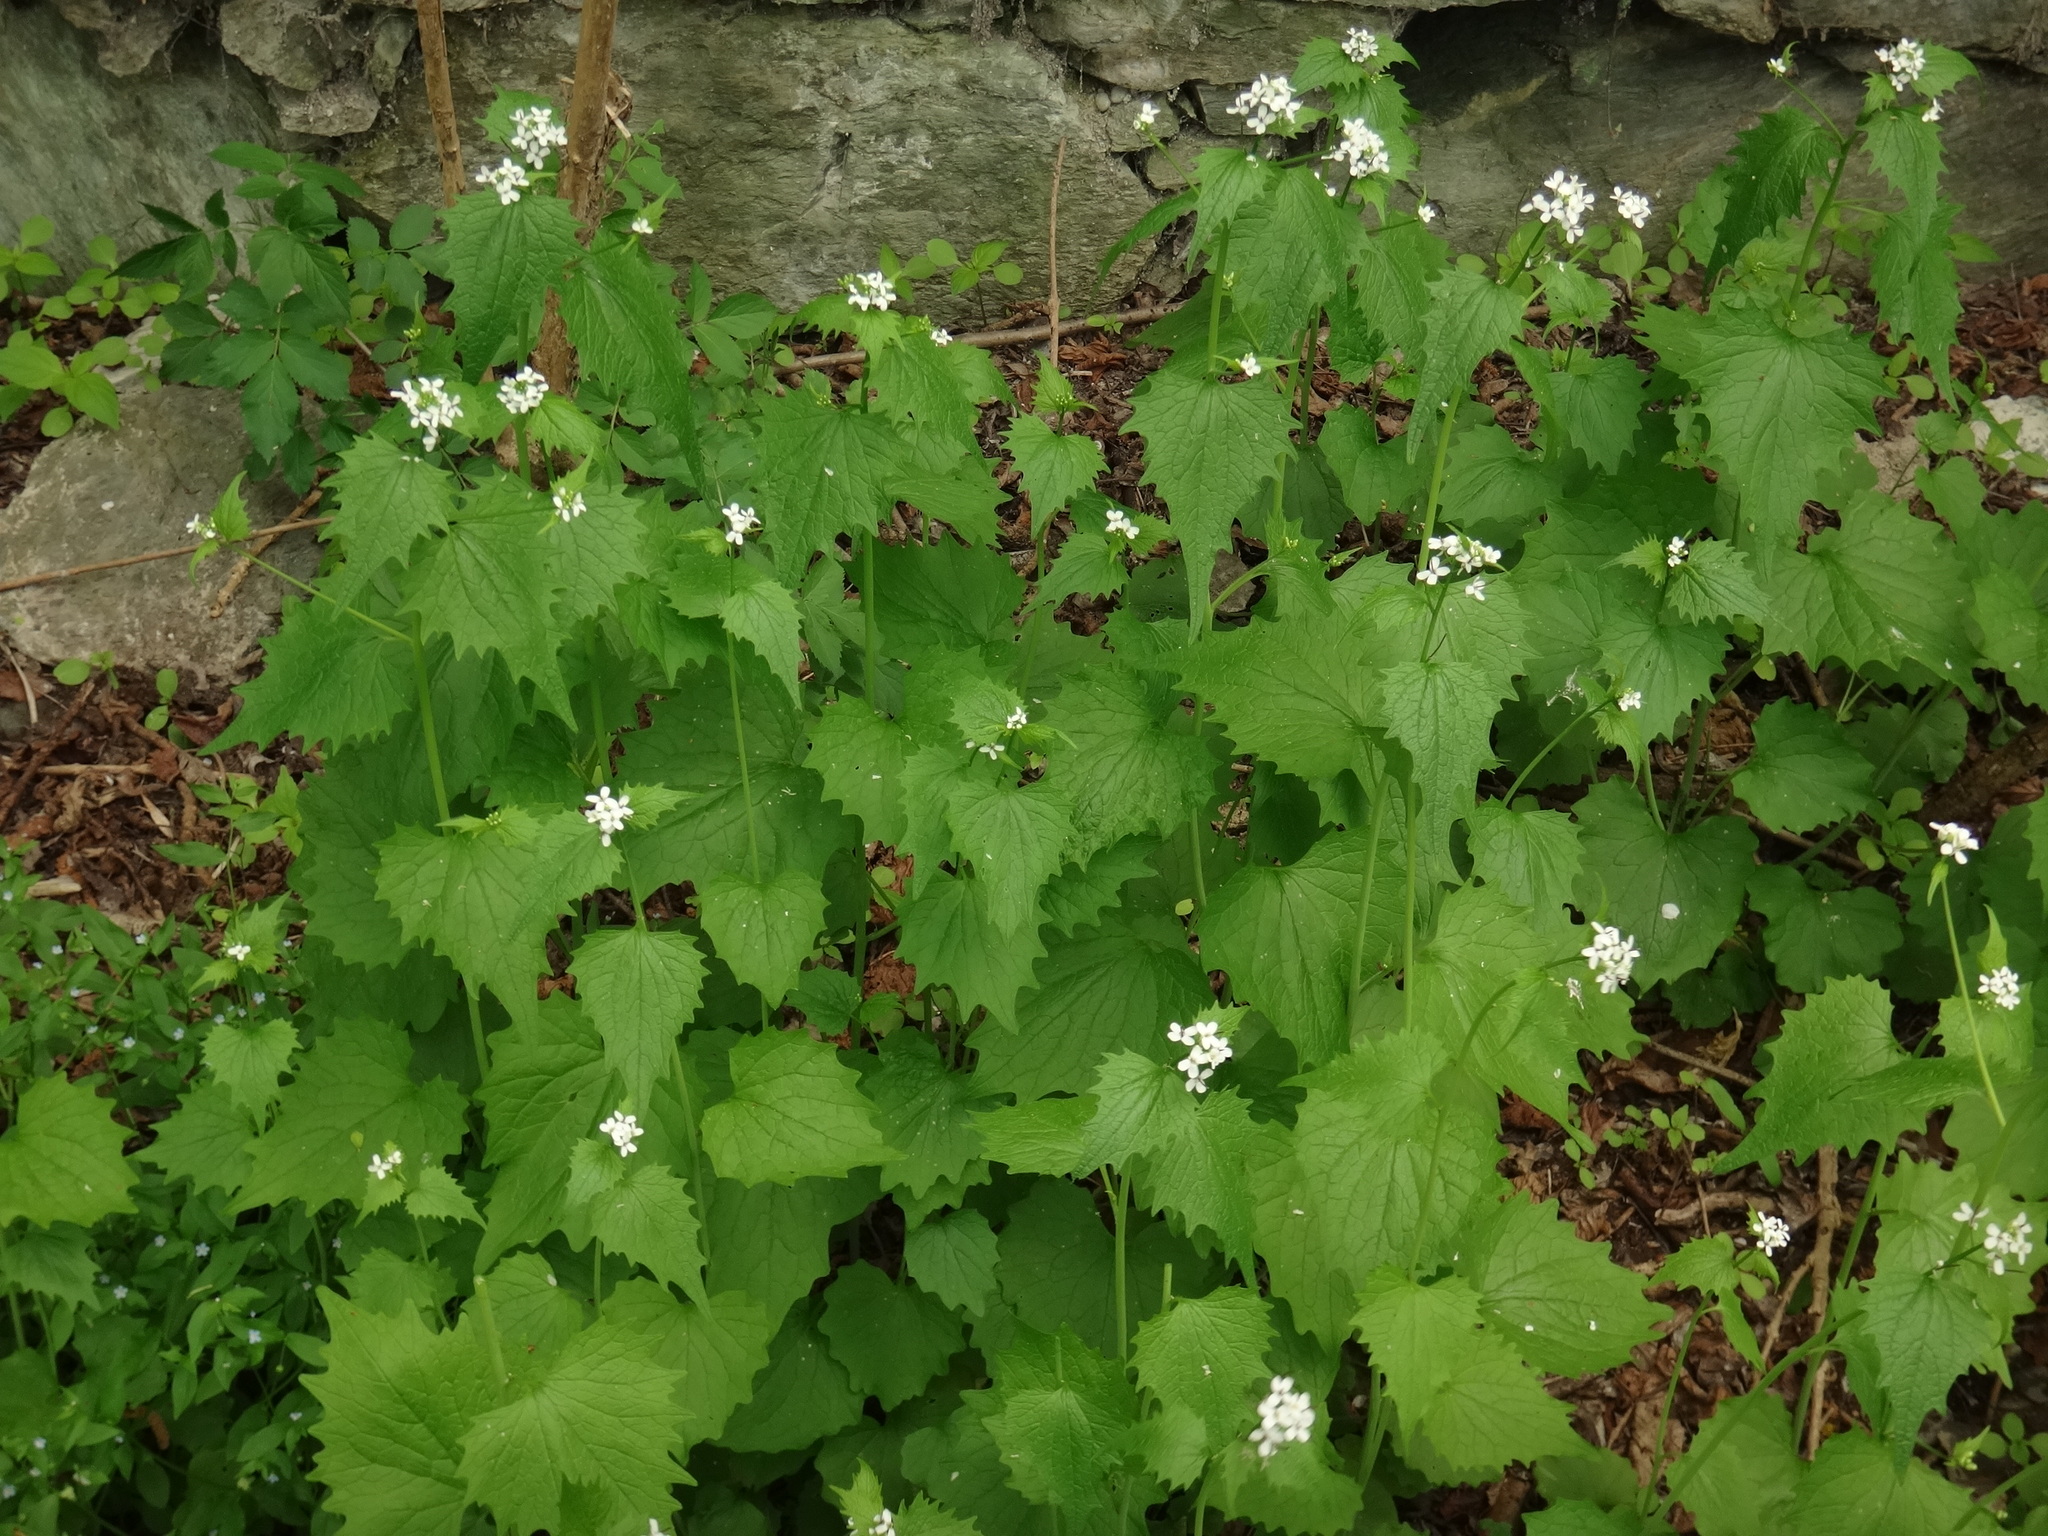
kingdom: Plantae
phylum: Tracheophyta
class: Magnoliopsida
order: Brassicales
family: Brassicaceae
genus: Alliaria
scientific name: Alliaria petiolata
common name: Garlic mustard
